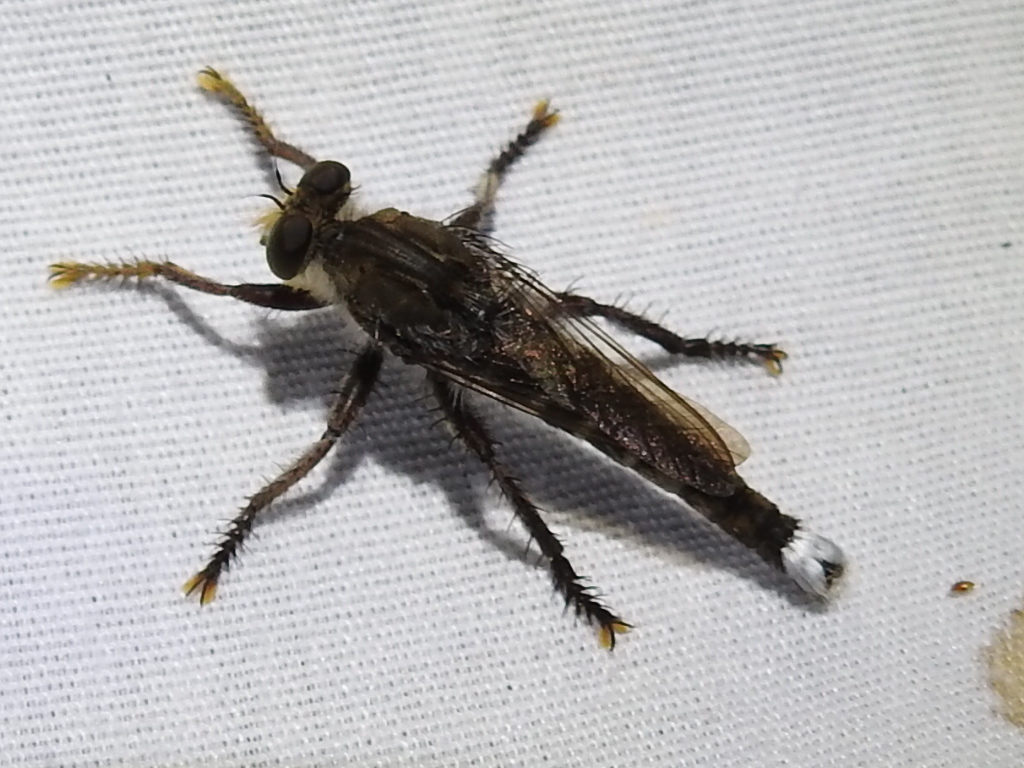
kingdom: Animalia
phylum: Arthropoda
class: Insecta
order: Diptera
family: Asilidae
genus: Promachus
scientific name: Promachus bastardii
